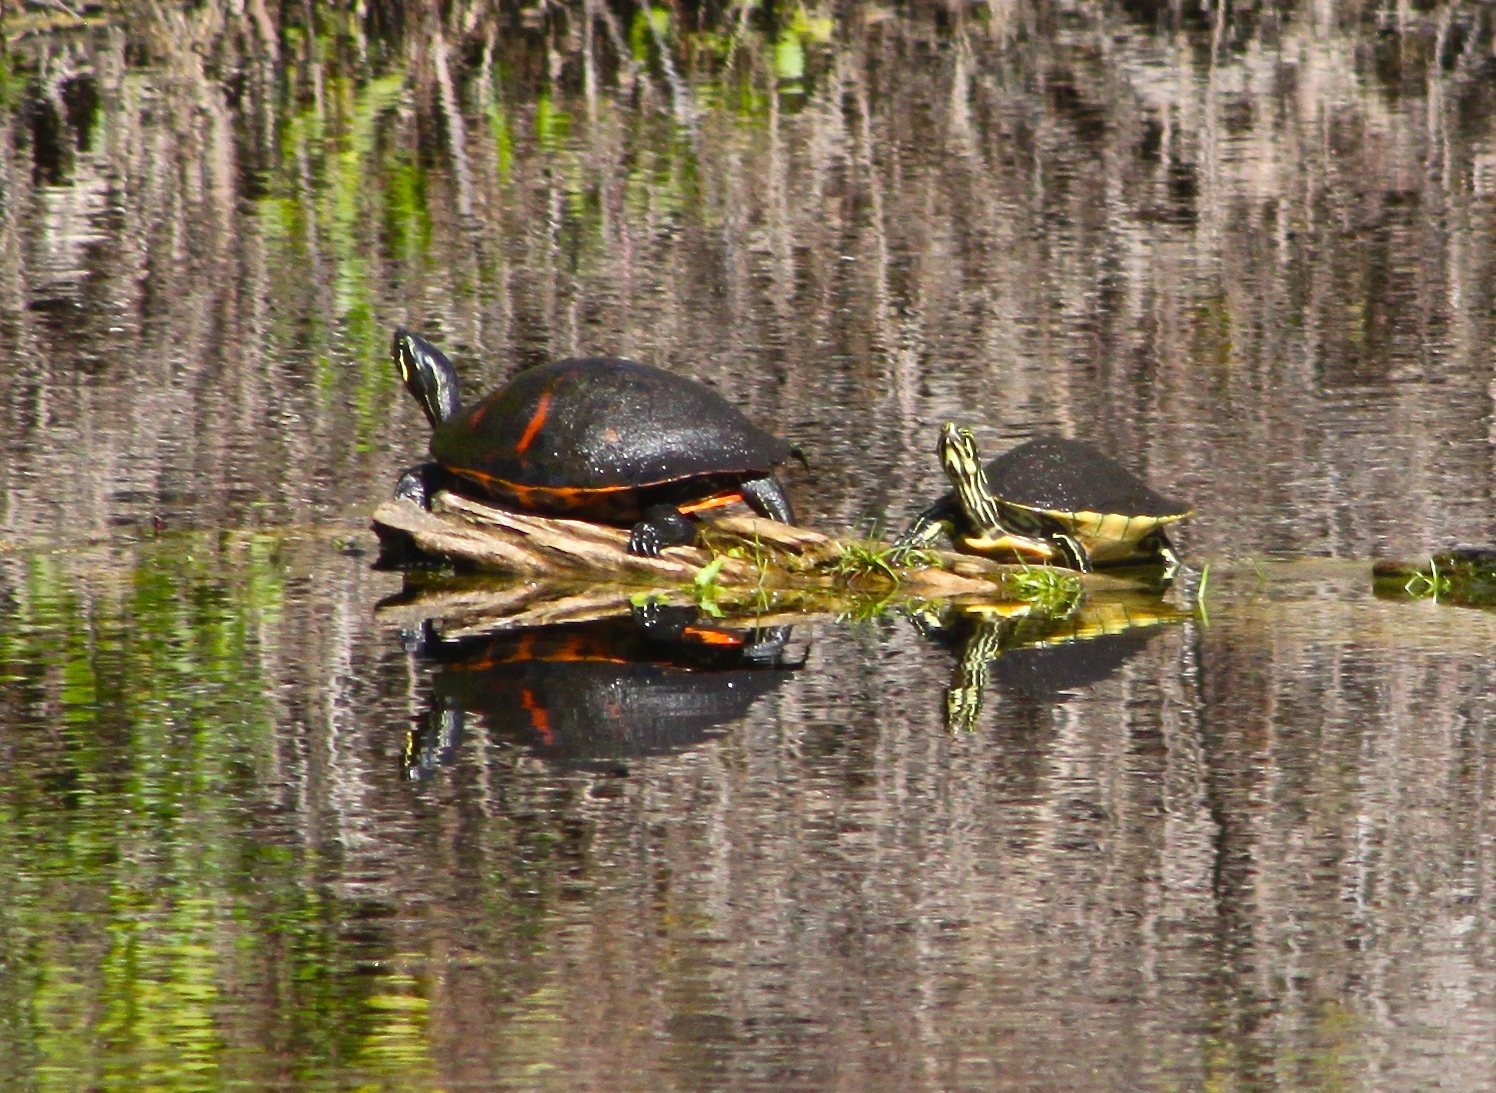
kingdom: Animalia
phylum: Chordata
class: Testudines
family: Emydidae
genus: Pseudemys
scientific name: Pseudemys nelsoni
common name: Florida red-bellied turtle
